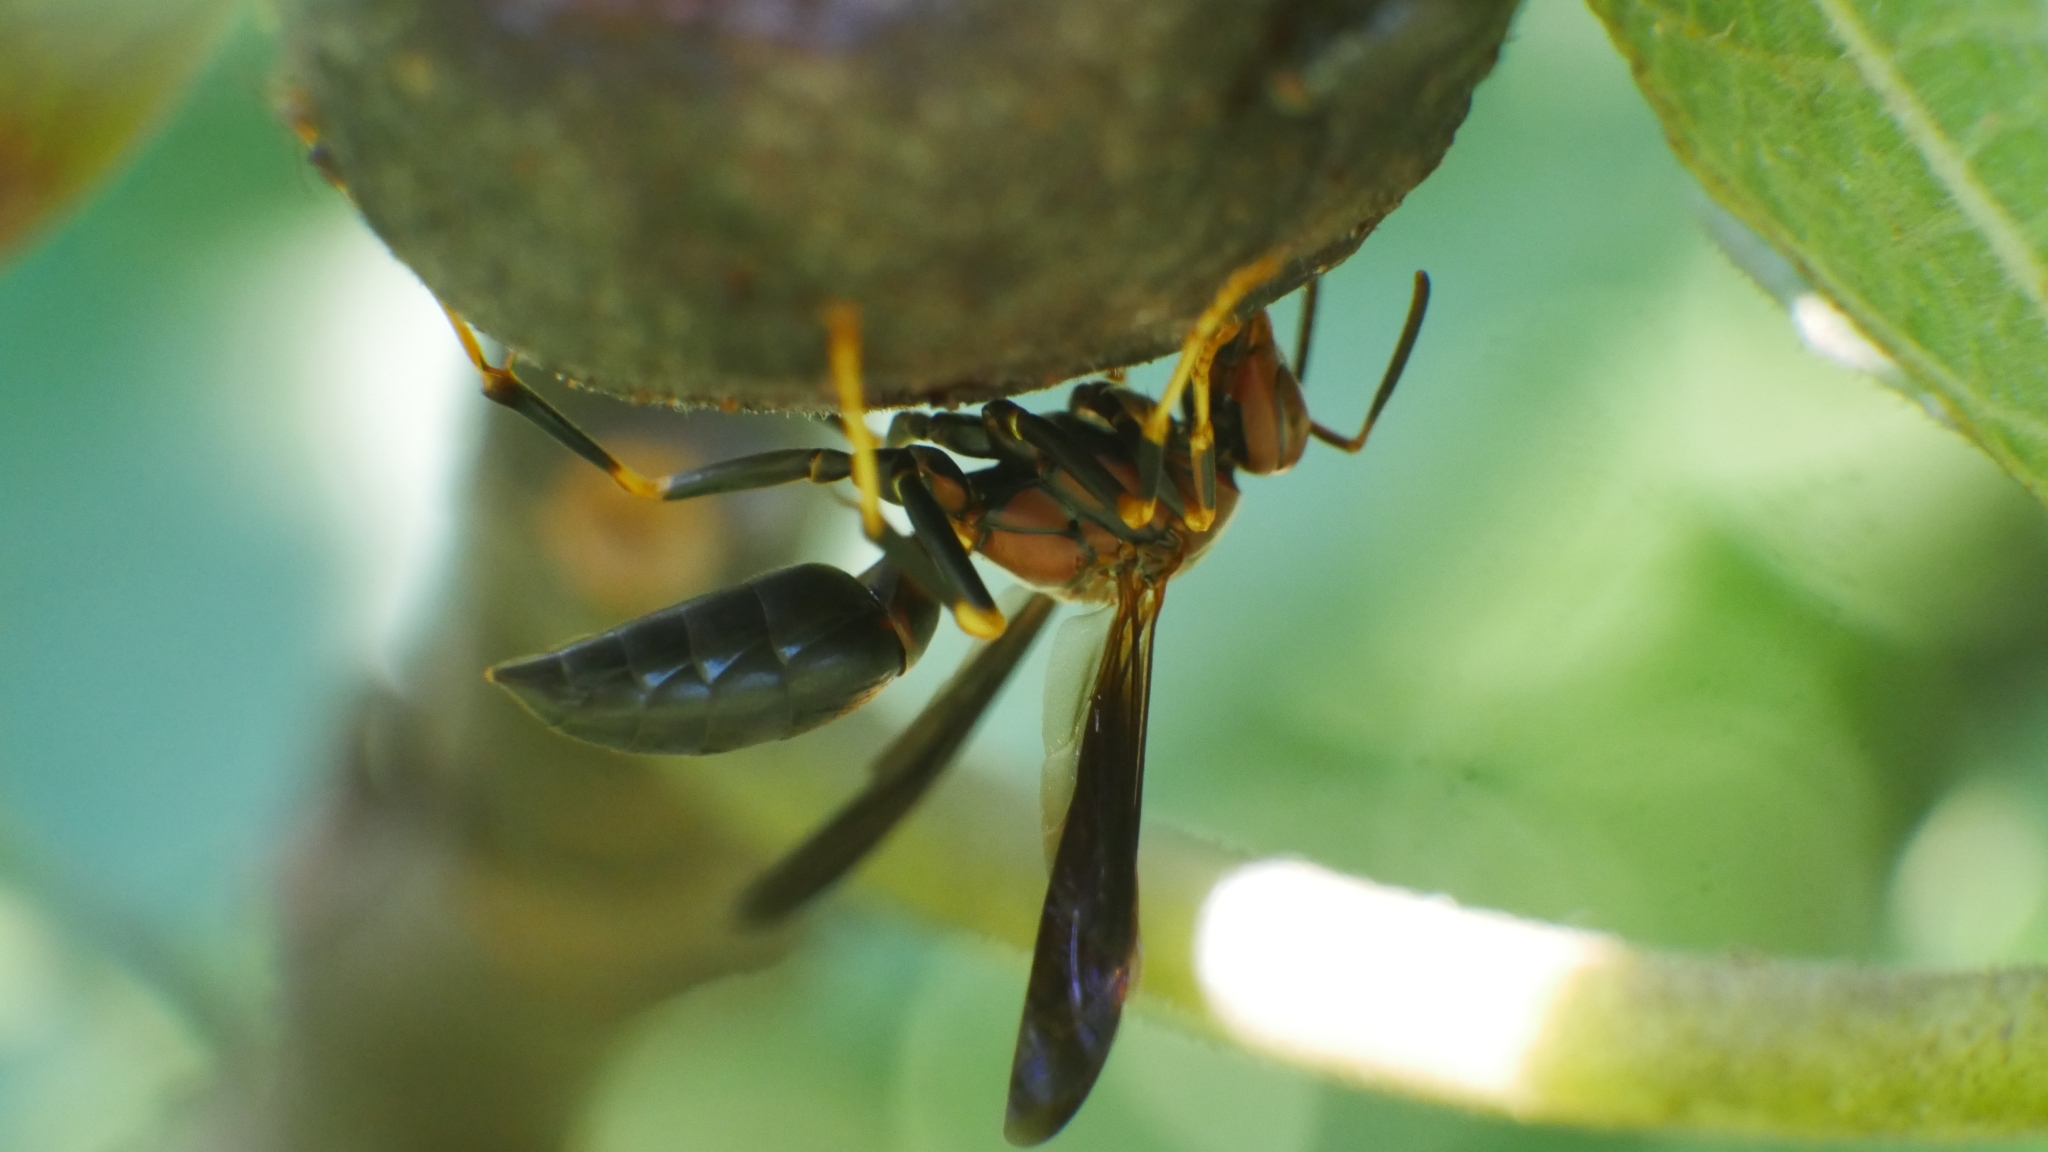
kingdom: Animalia
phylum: Arthropoda
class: Insecta
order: Hymenoptera
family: Eumenidae
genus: Polistes
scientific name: Polistes metricus
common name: Metric paper wasp
